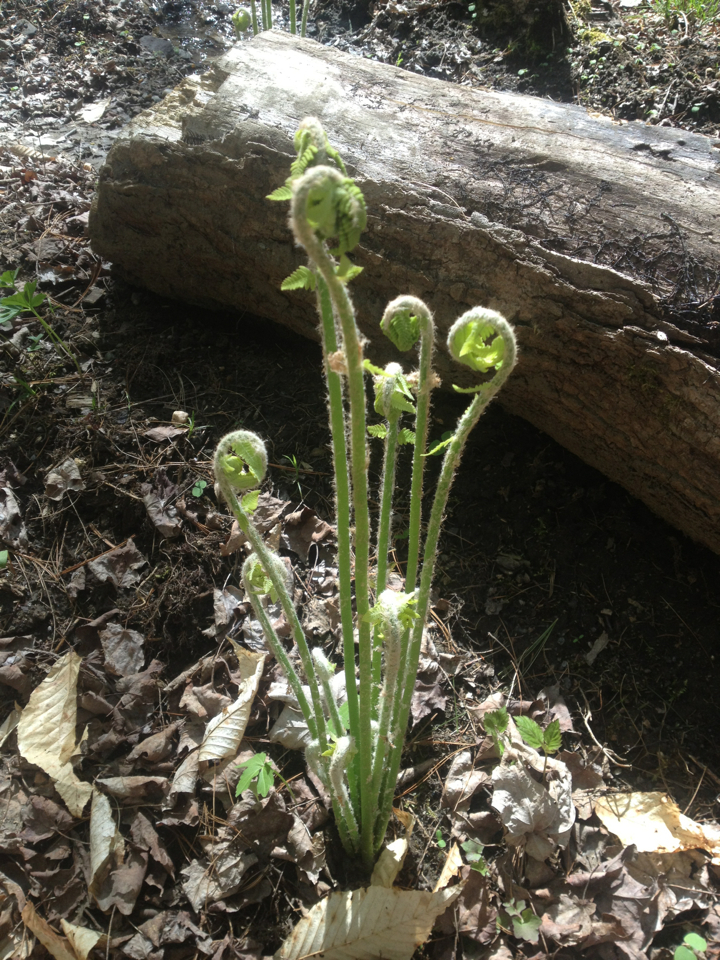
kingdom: Plantae
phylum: Tracheophyta
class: Polypodiopsida
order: Osmundales
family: Osmundaceae
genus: Osmundastrum
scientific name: Osmundastrum cinnamomeum
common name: Cinnamon fern
